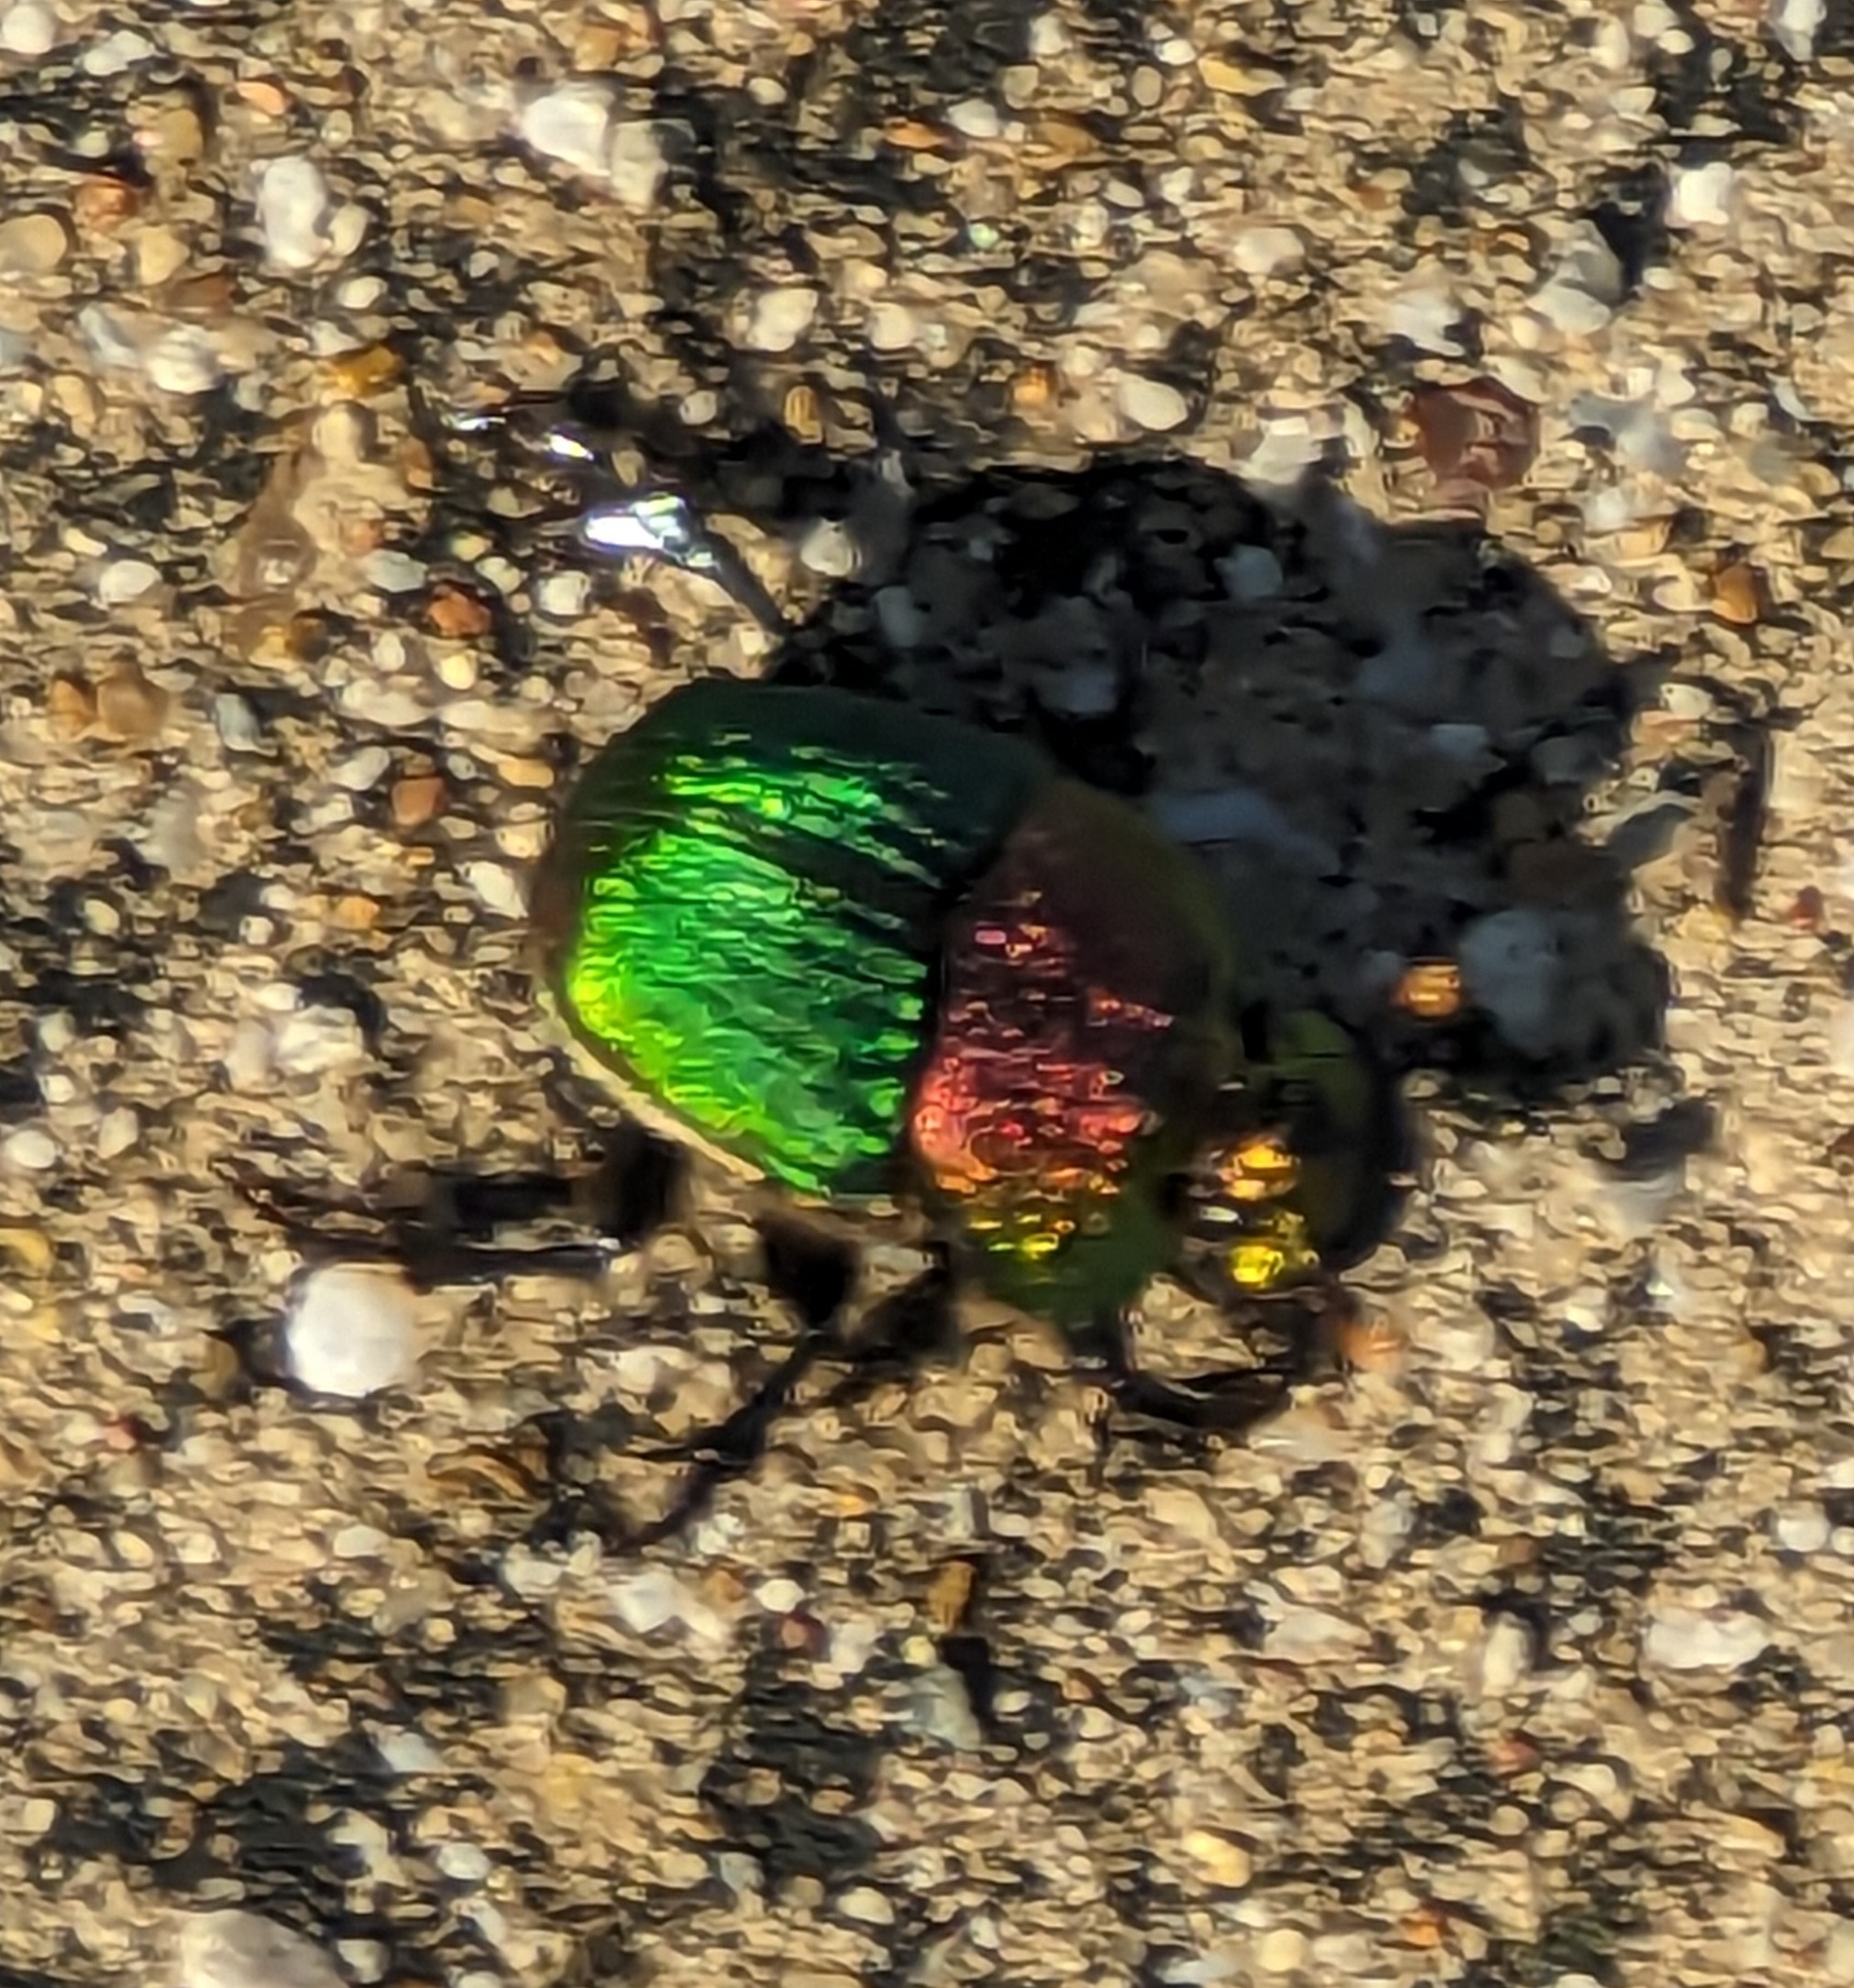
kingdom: Animalia
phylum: Arthropoda
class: Insecta
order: Coleoptera
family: Scarabaeidae
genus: Phanaeus
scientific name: Phanaeus vindex
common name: Rainbow scarab
